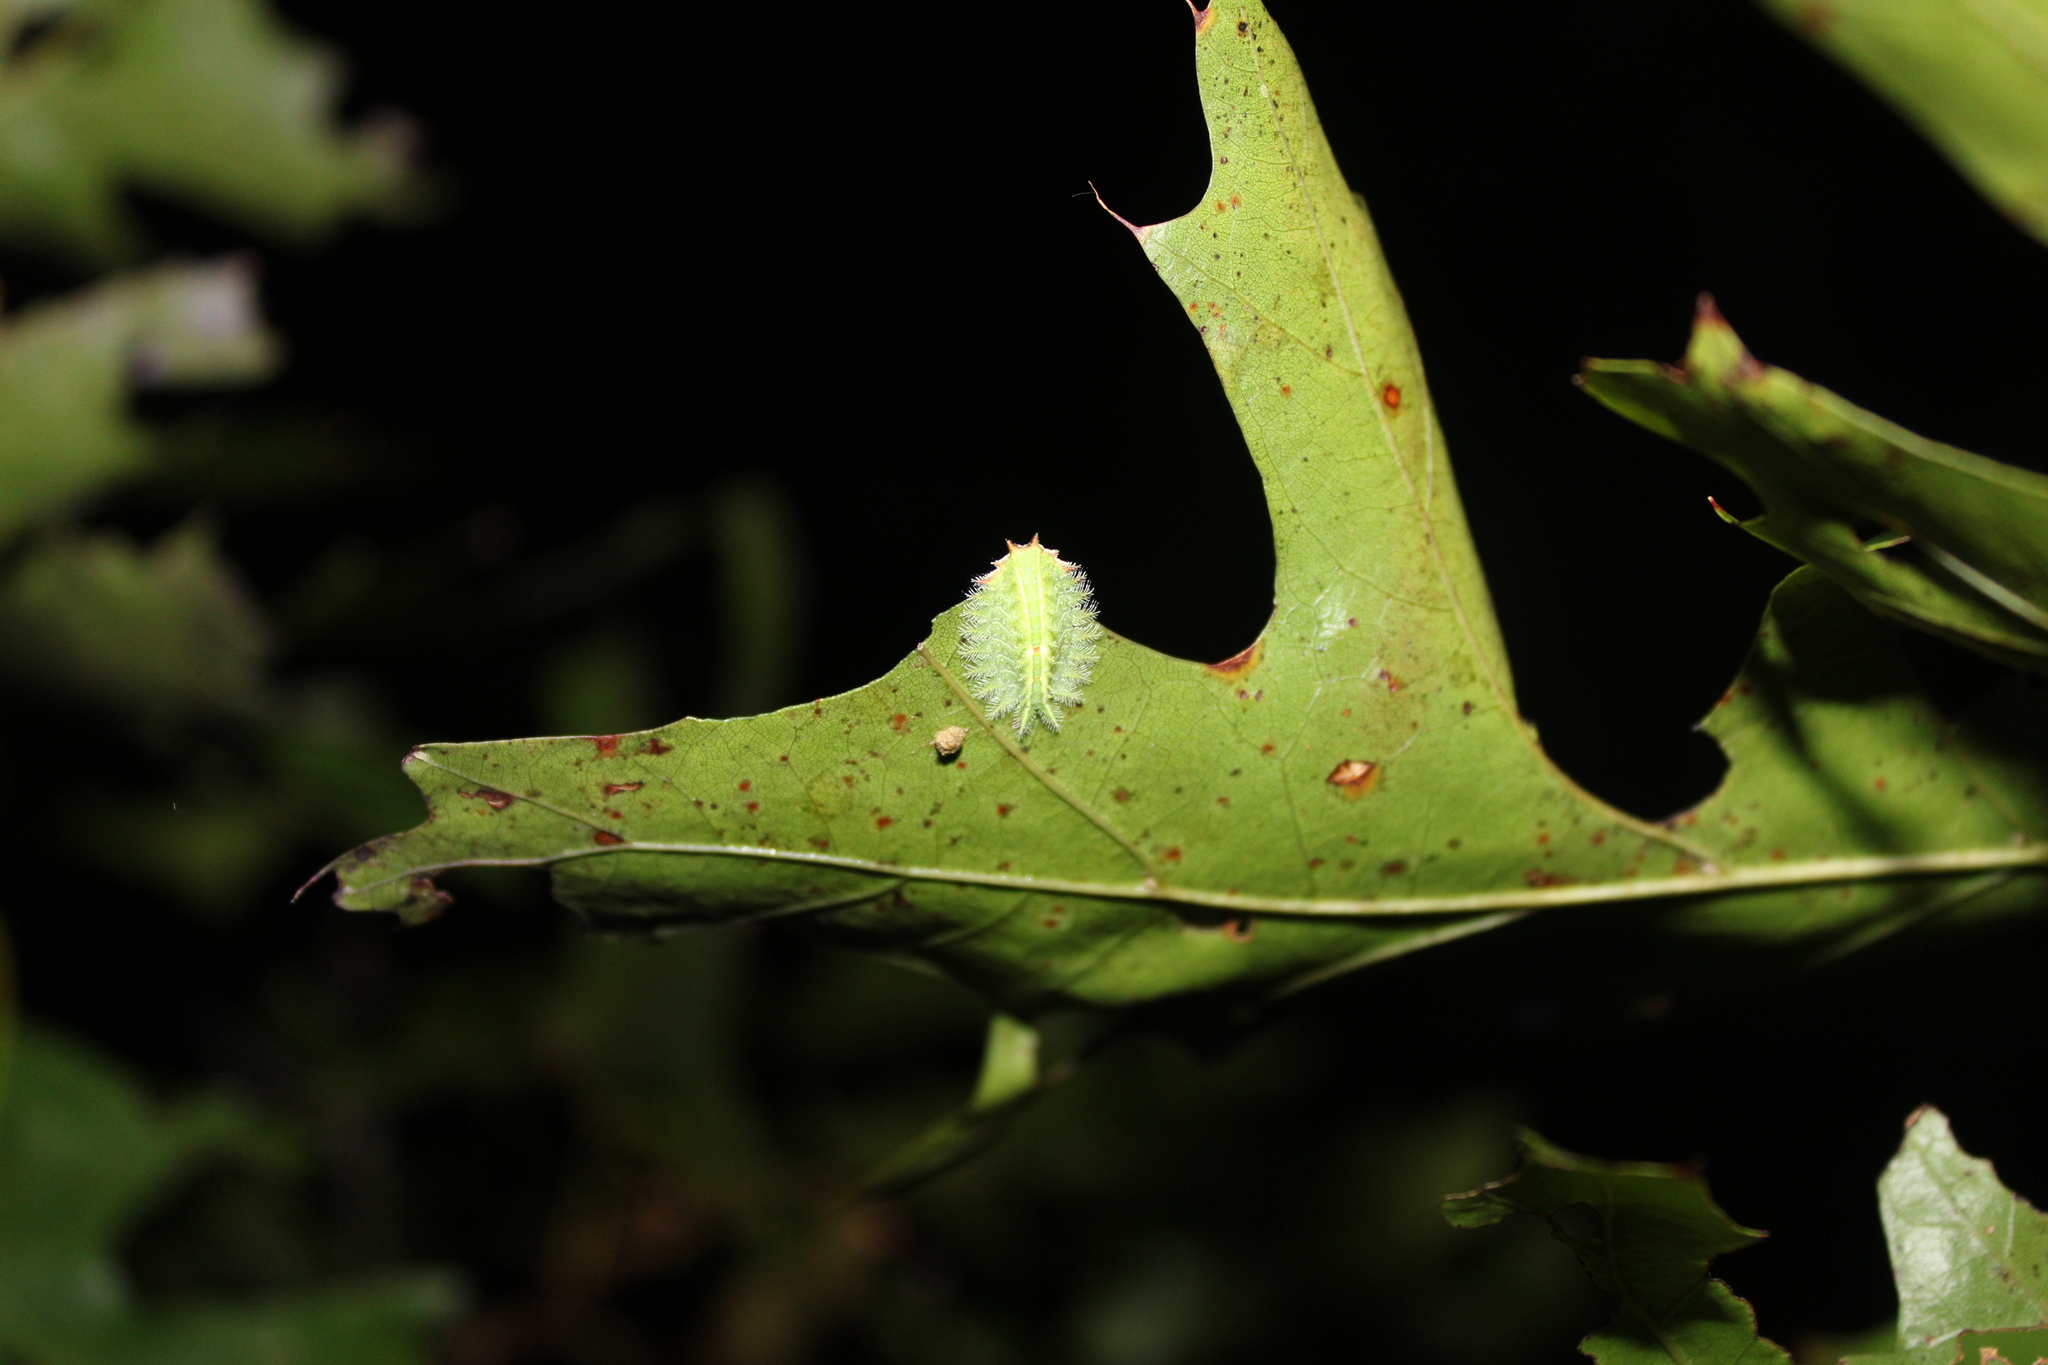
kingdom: Animalia
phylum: Arthropoda
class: Insecta
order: Lepidoptera
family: Limacodidae
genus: Isa
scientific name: Isa textula
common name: Crowned slug moth
